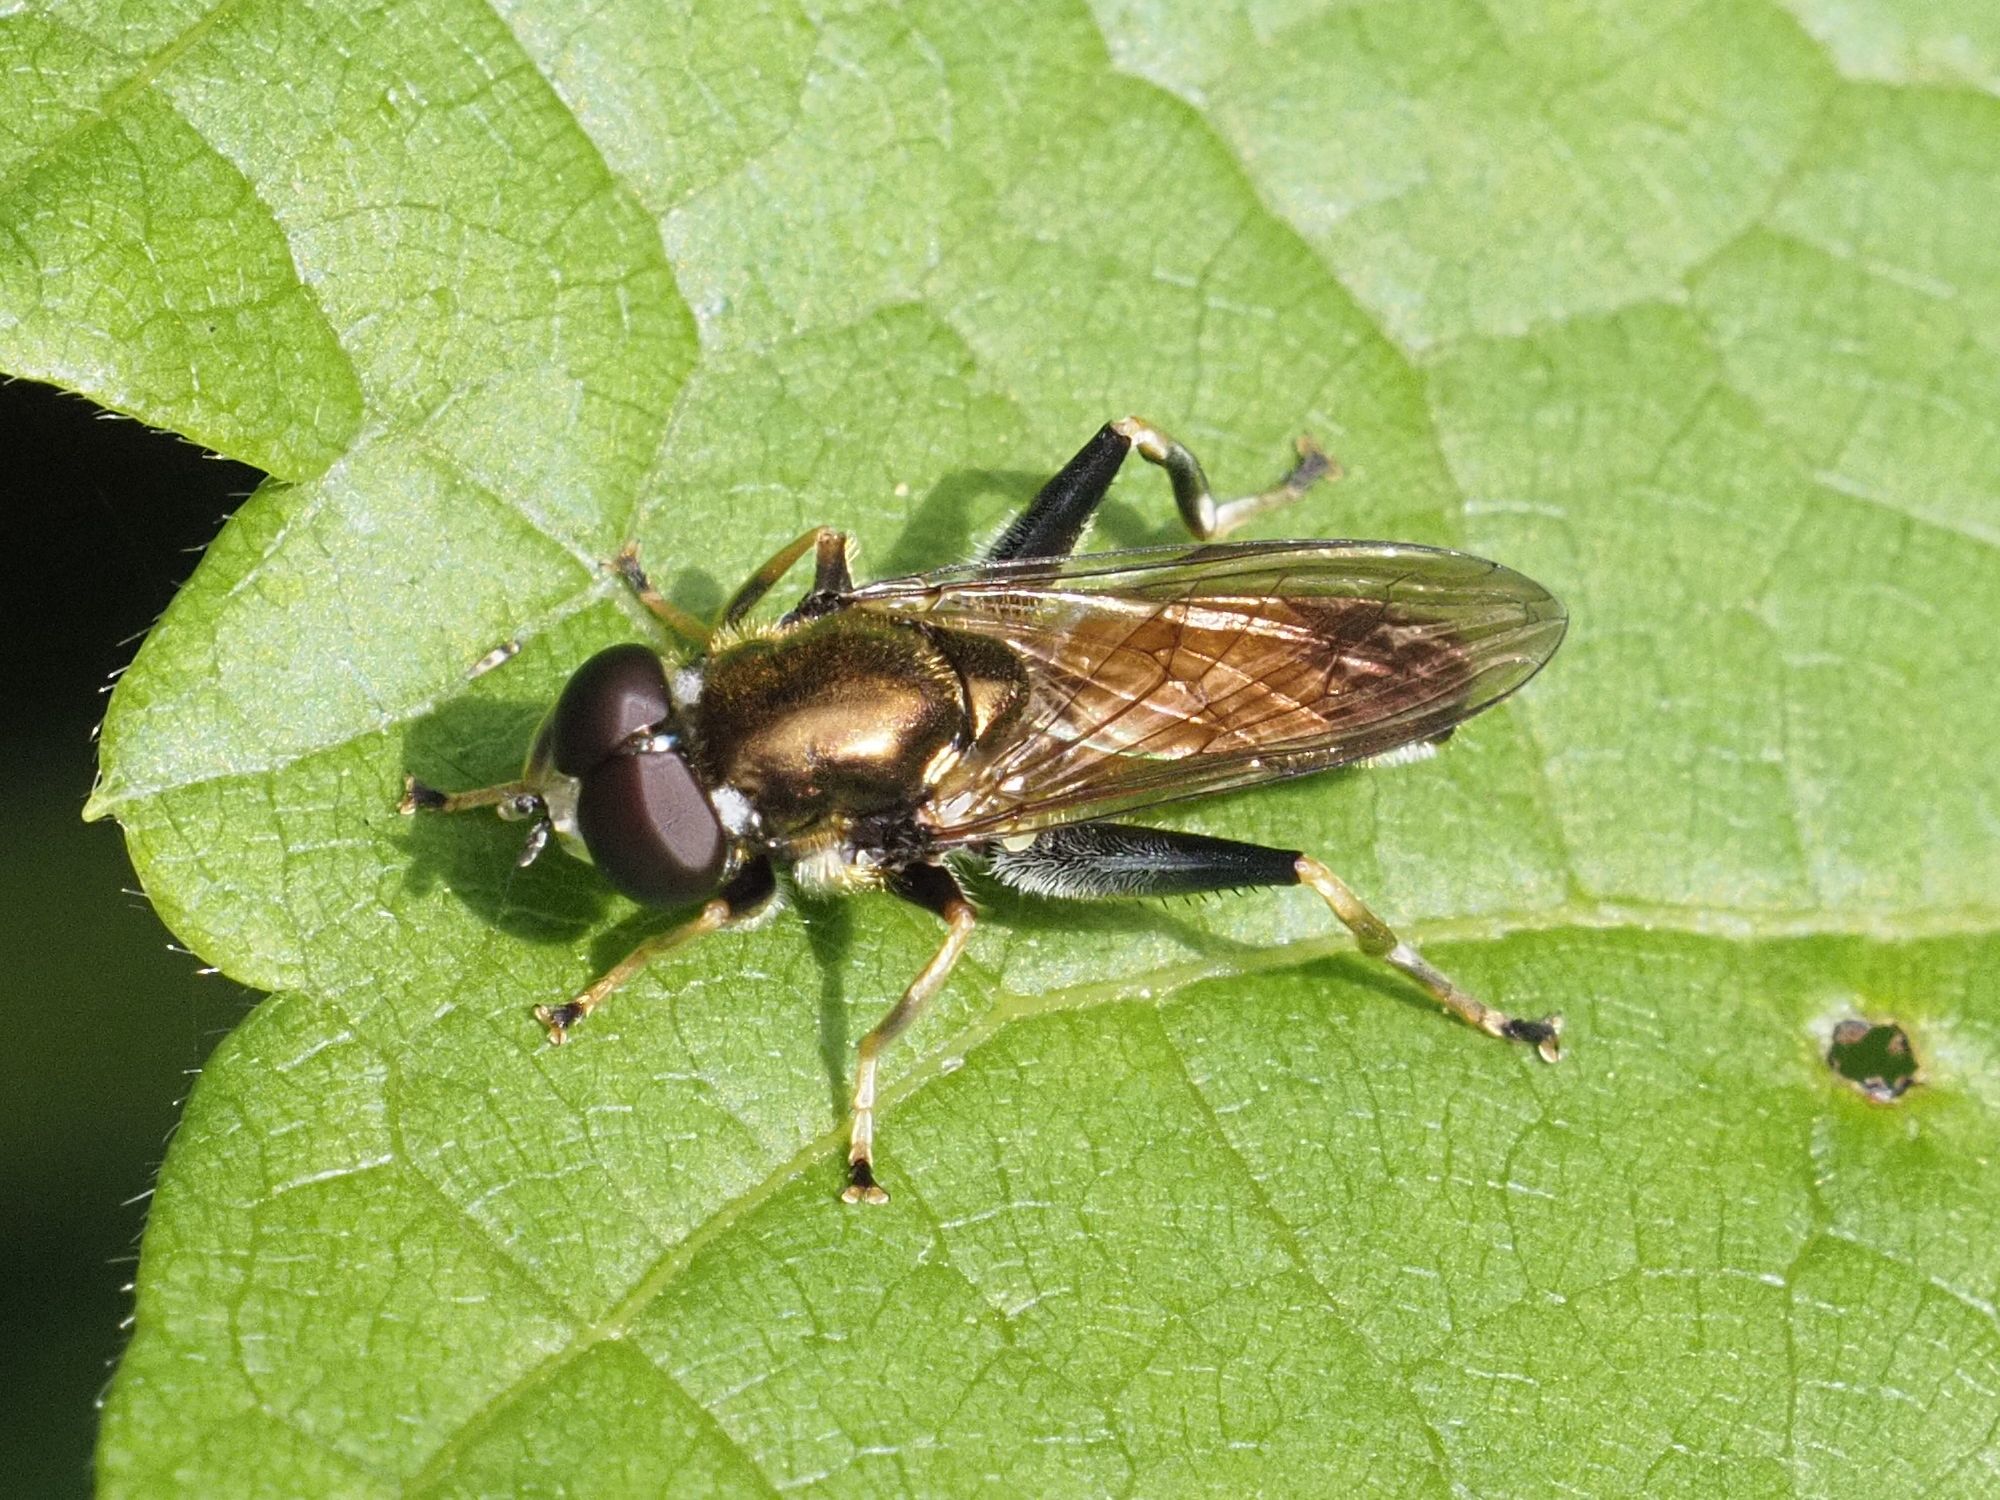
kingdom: Animalia
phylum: Arthropoda
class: Insecta
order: Diptera
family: Syrphidae
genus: Xylota
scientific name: Xylota segnis
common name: Brown-toed forest fly
